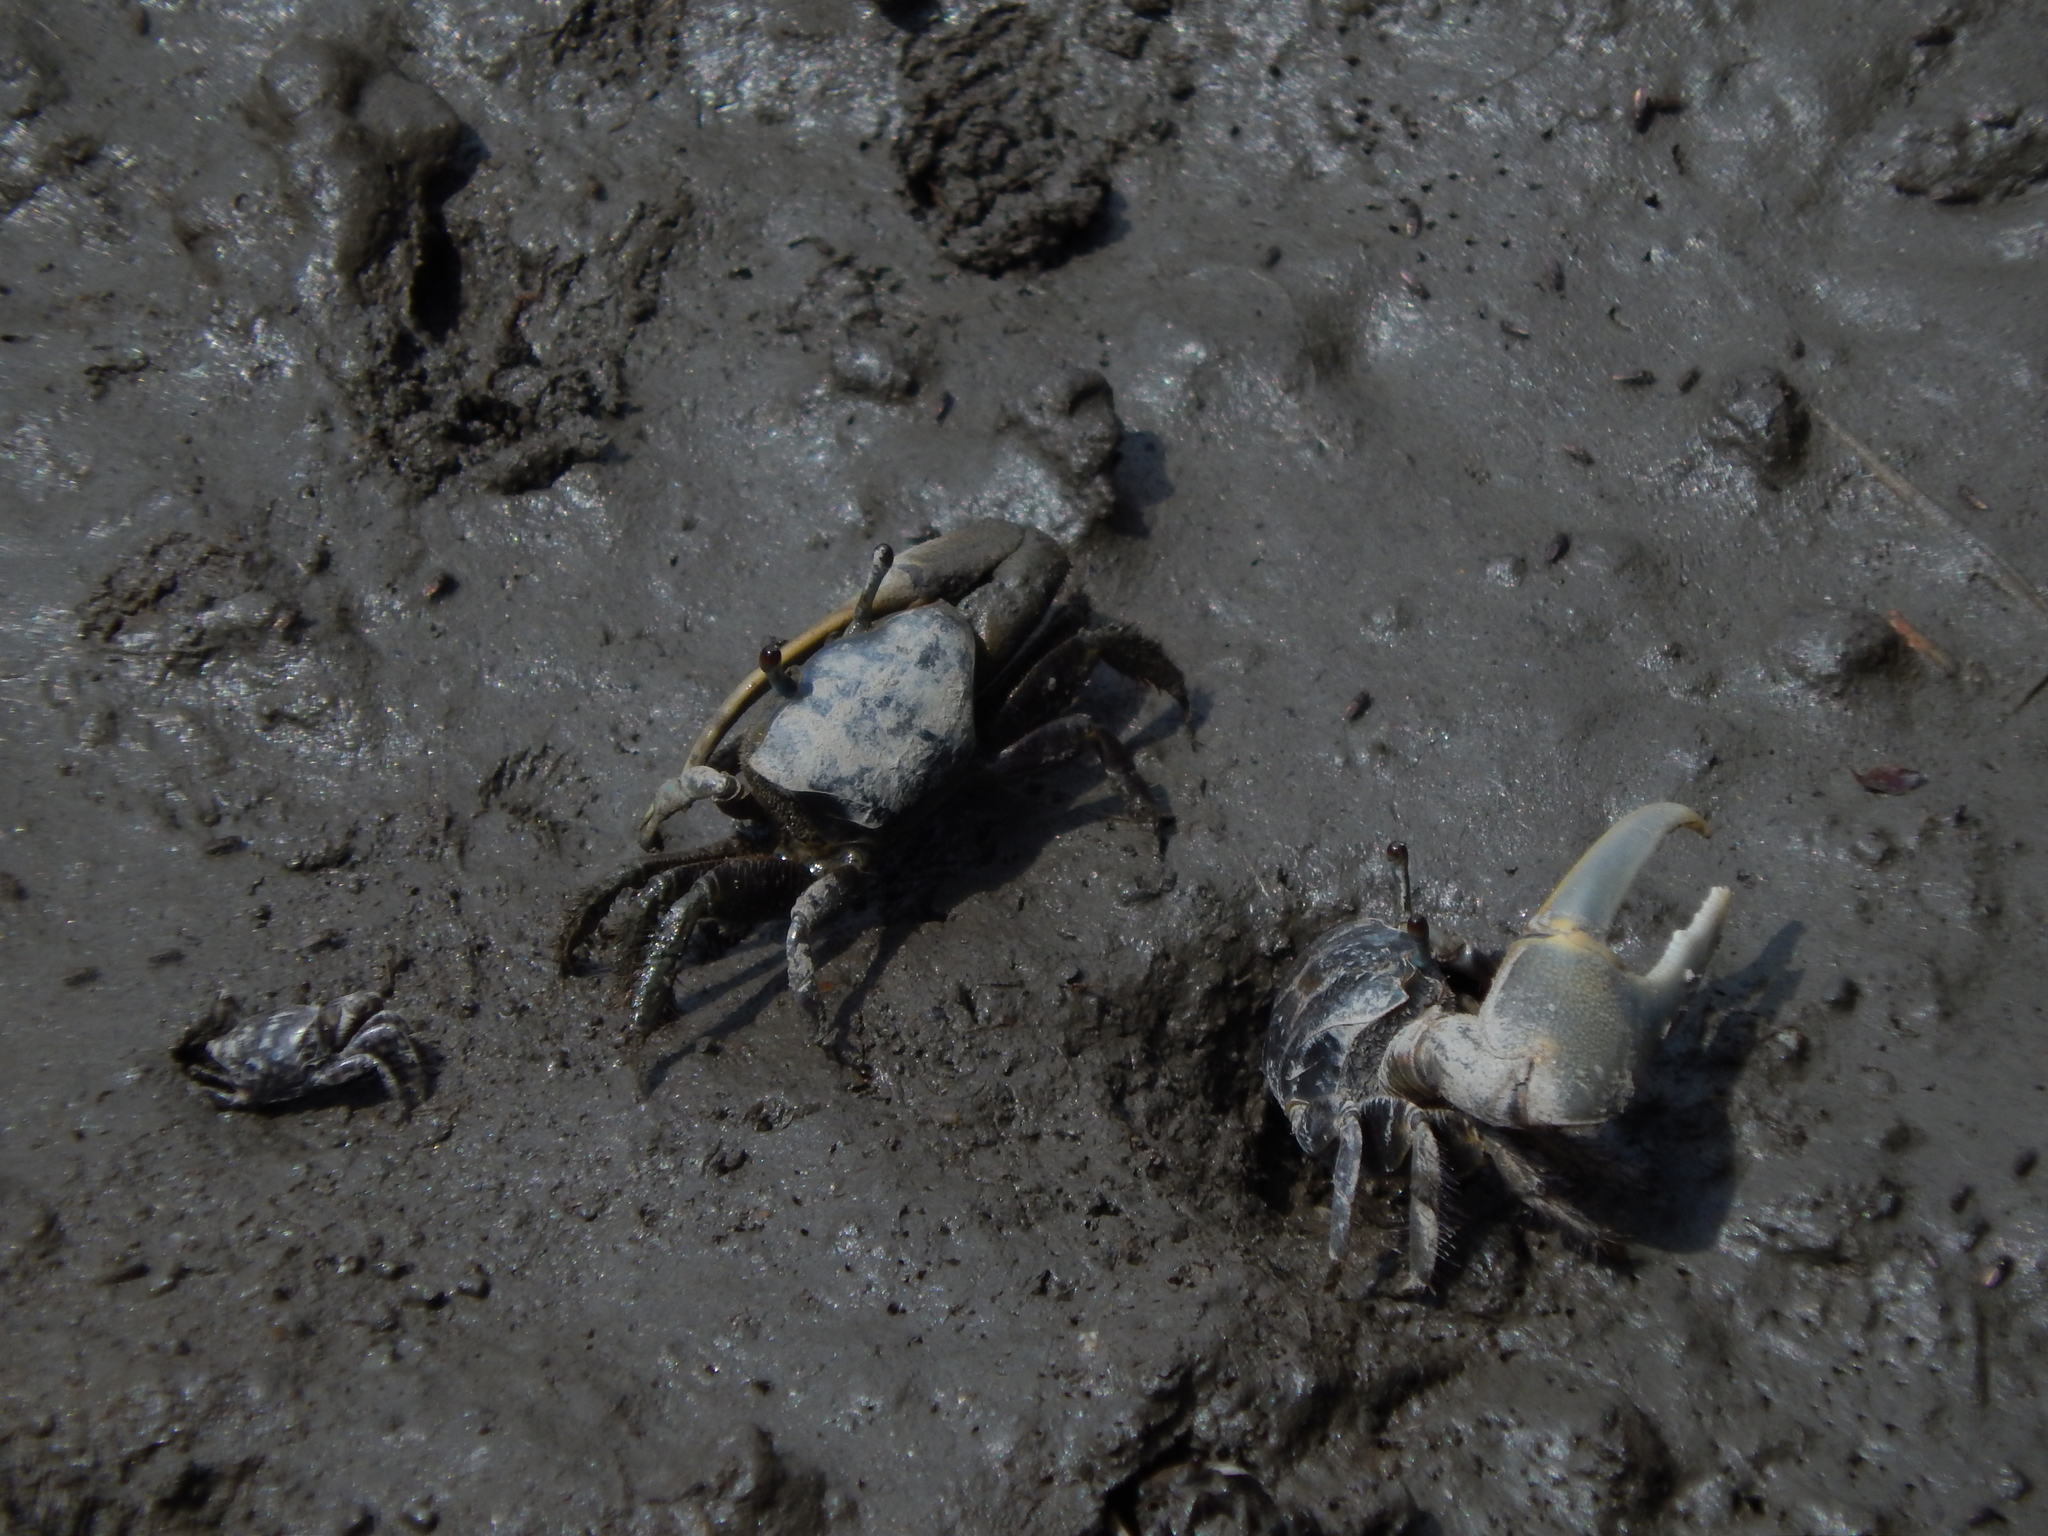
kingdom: Animalia
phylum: Arthropoda
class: Malacostraca
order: Decapoda
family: Ocypodidae
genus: Minuca
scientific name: Minuca pugnax
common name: Mud fiddler crab
